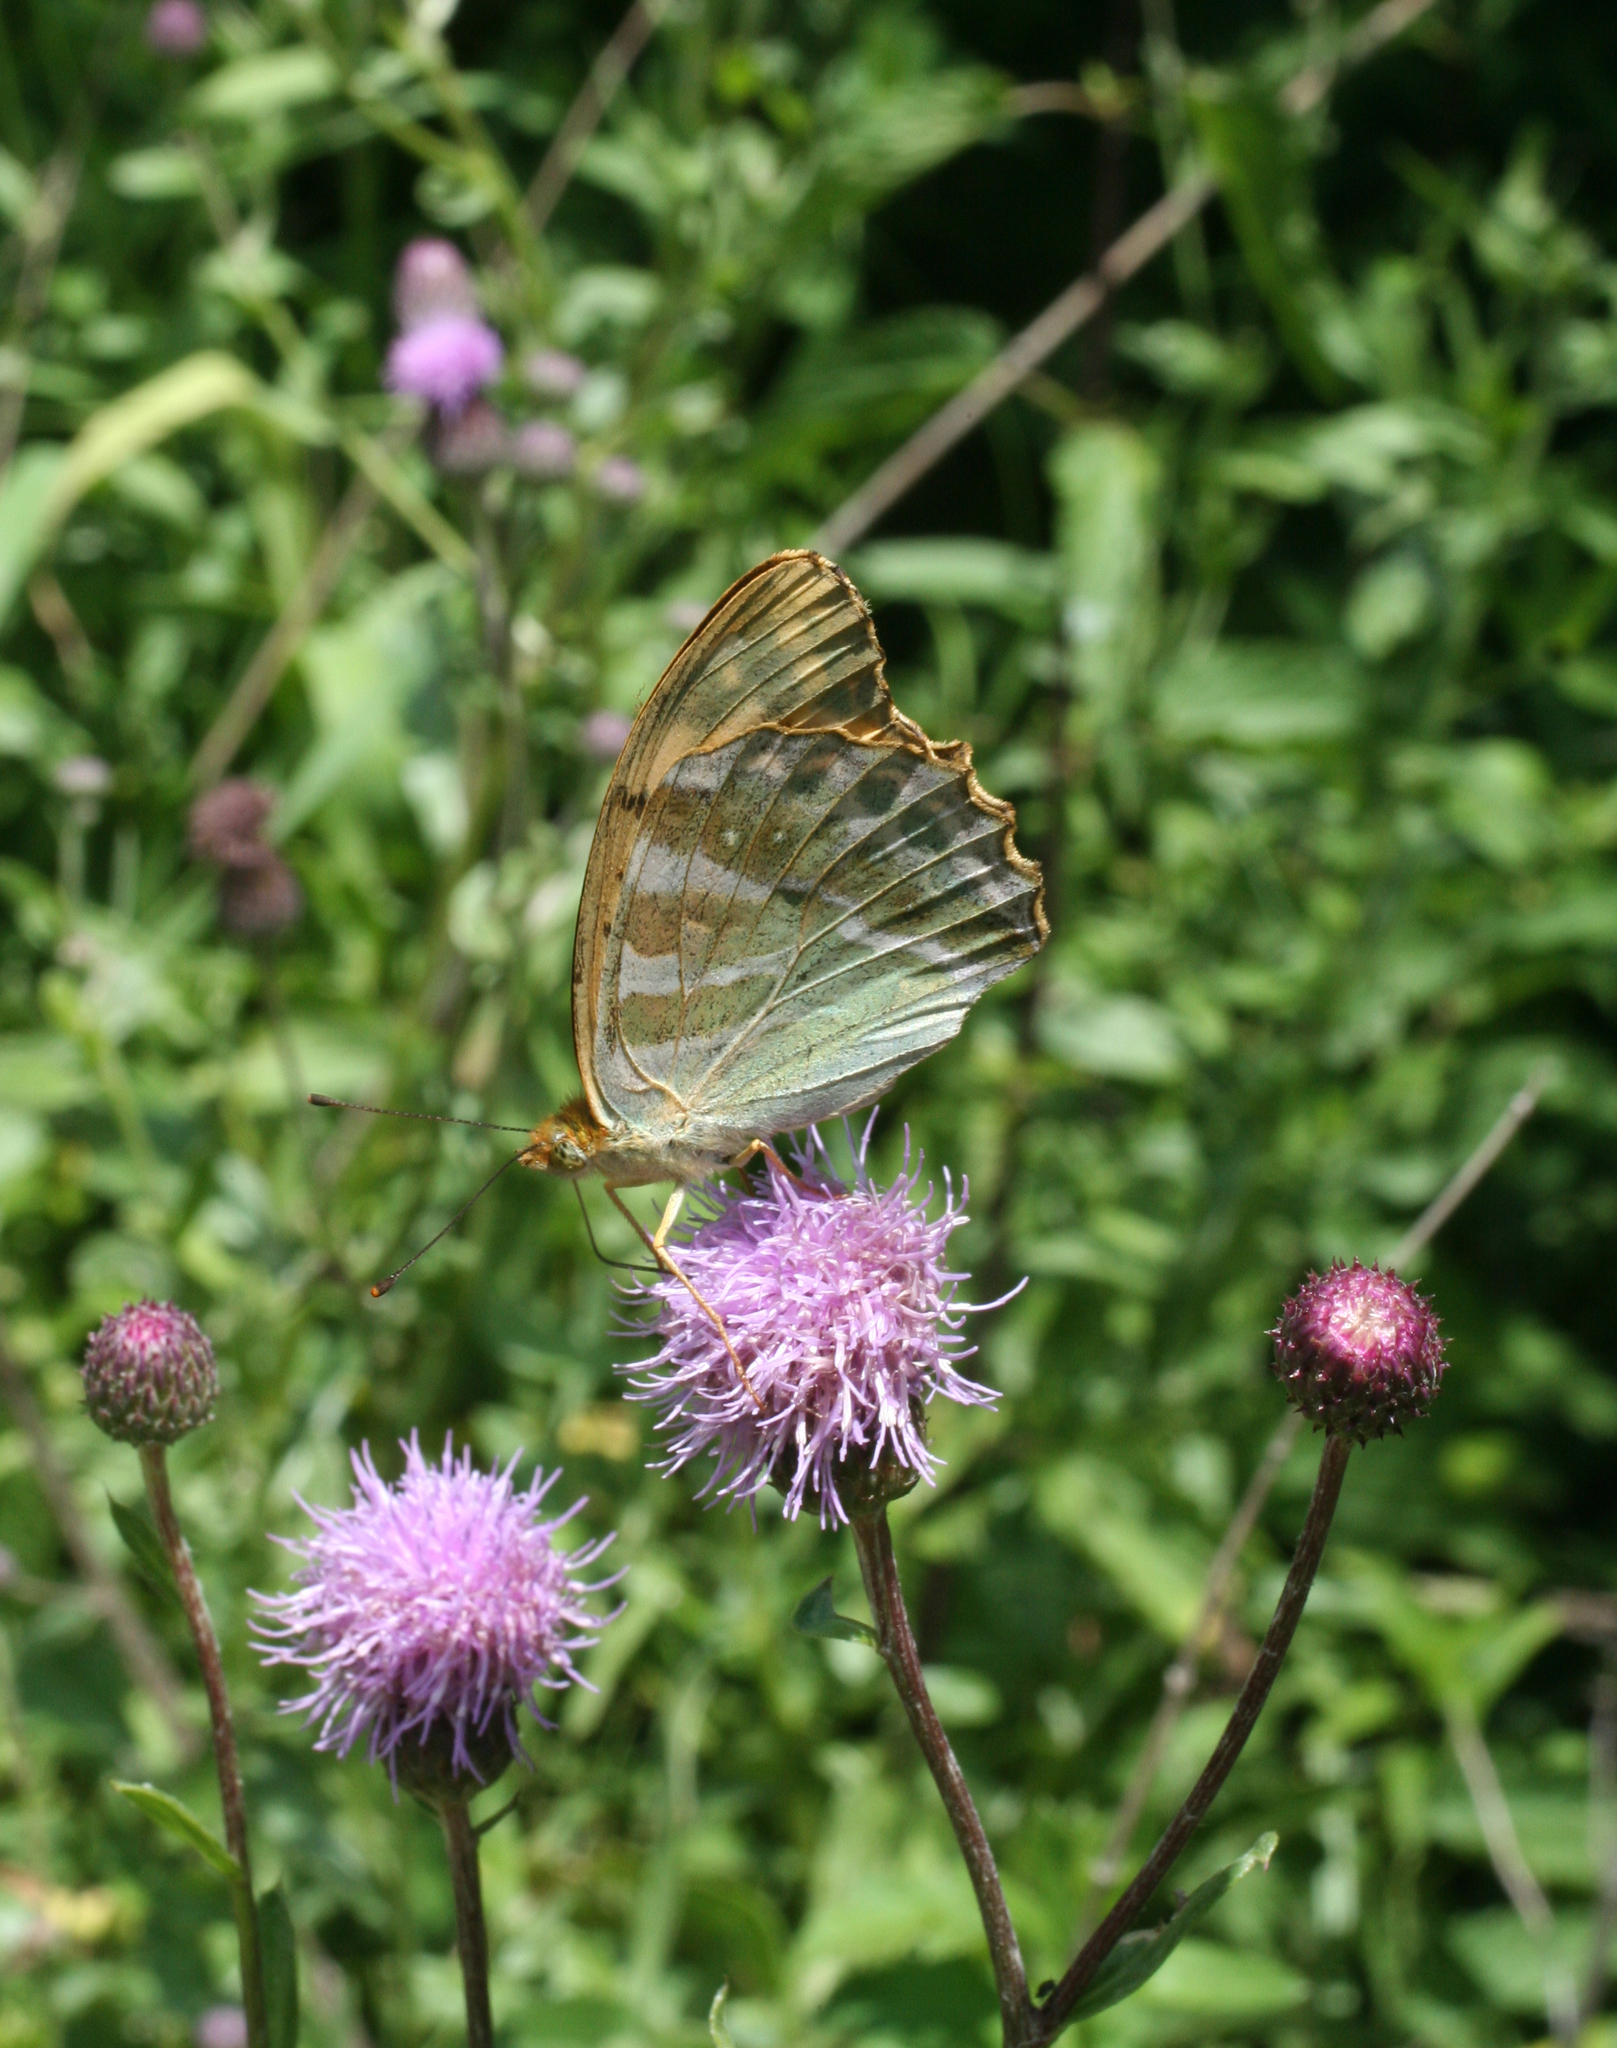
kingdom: Animalia
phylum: Arthropoda
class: Insecta
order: Lepidoptera
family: Nymphalidae
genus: Argynnis
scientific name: Argynnis paphia
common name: Silver-washed fritillary
